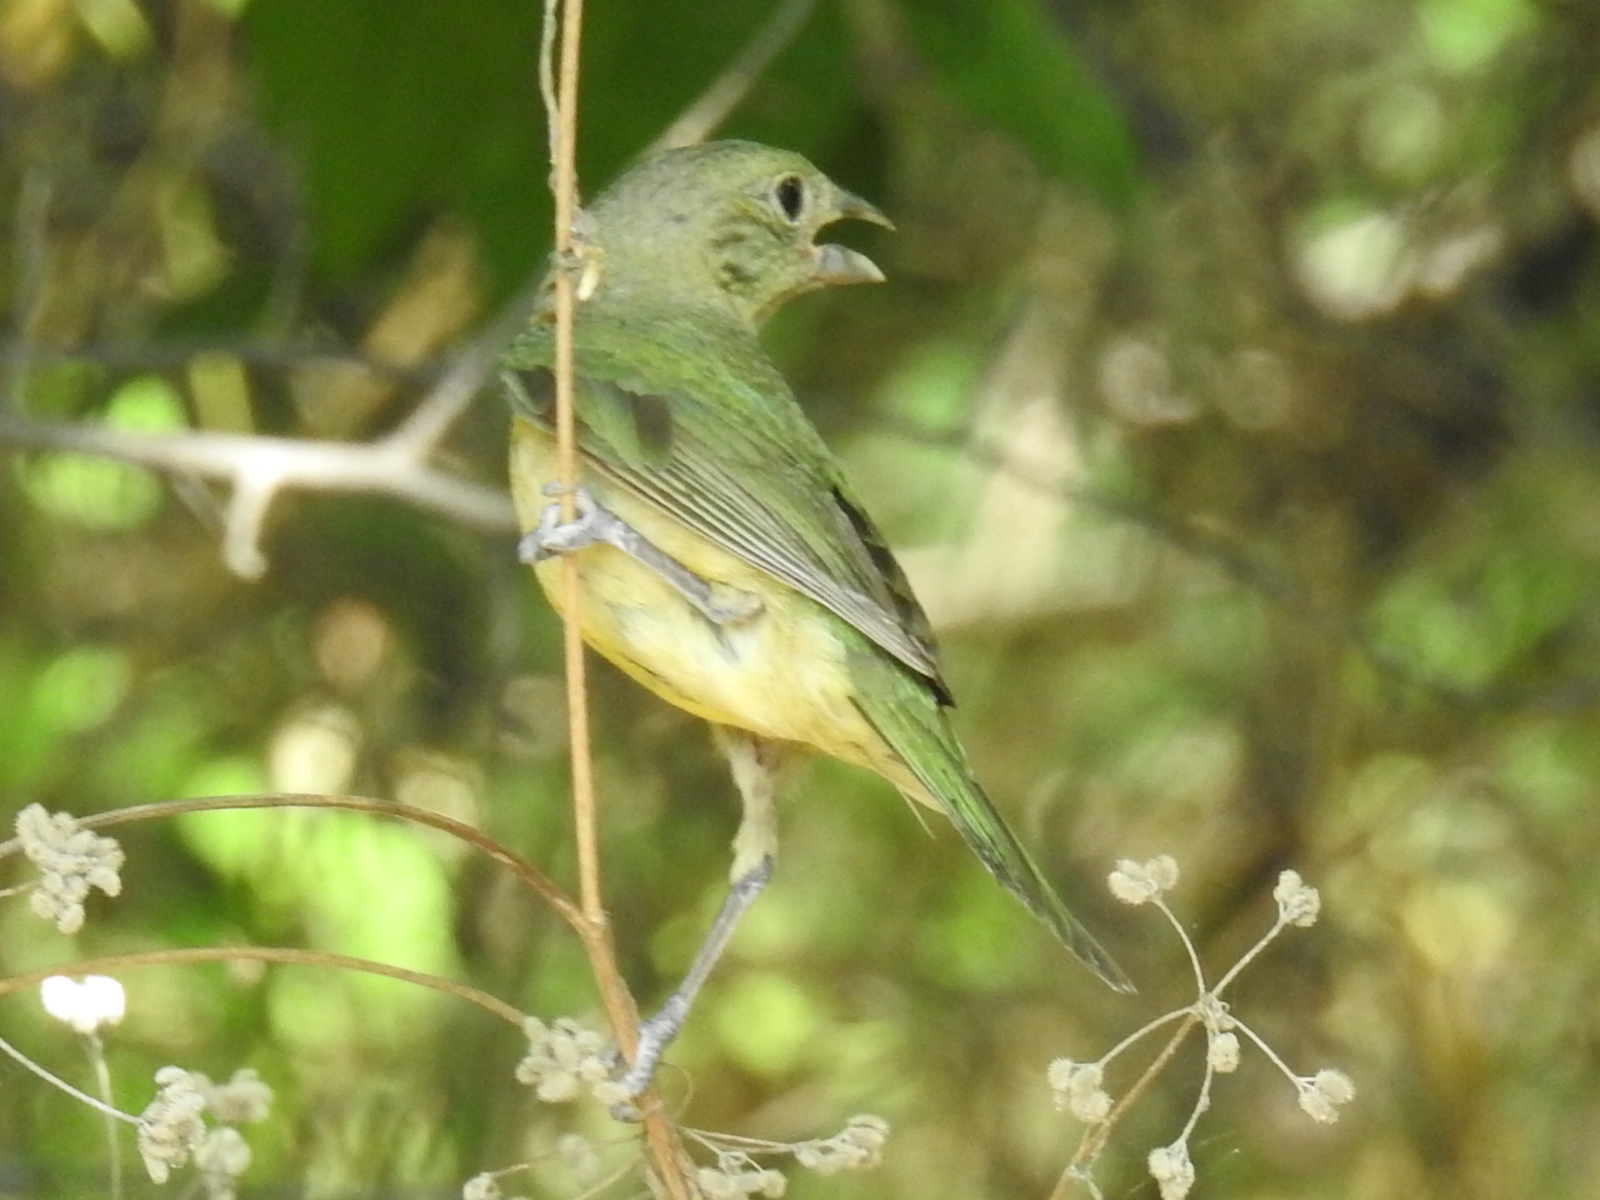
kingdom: Animalia
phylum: Chordata
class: Aves
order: Passeriformes
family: Cardinalidae
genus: Passerina
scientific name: Passerina ciris
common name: Painted bunting
